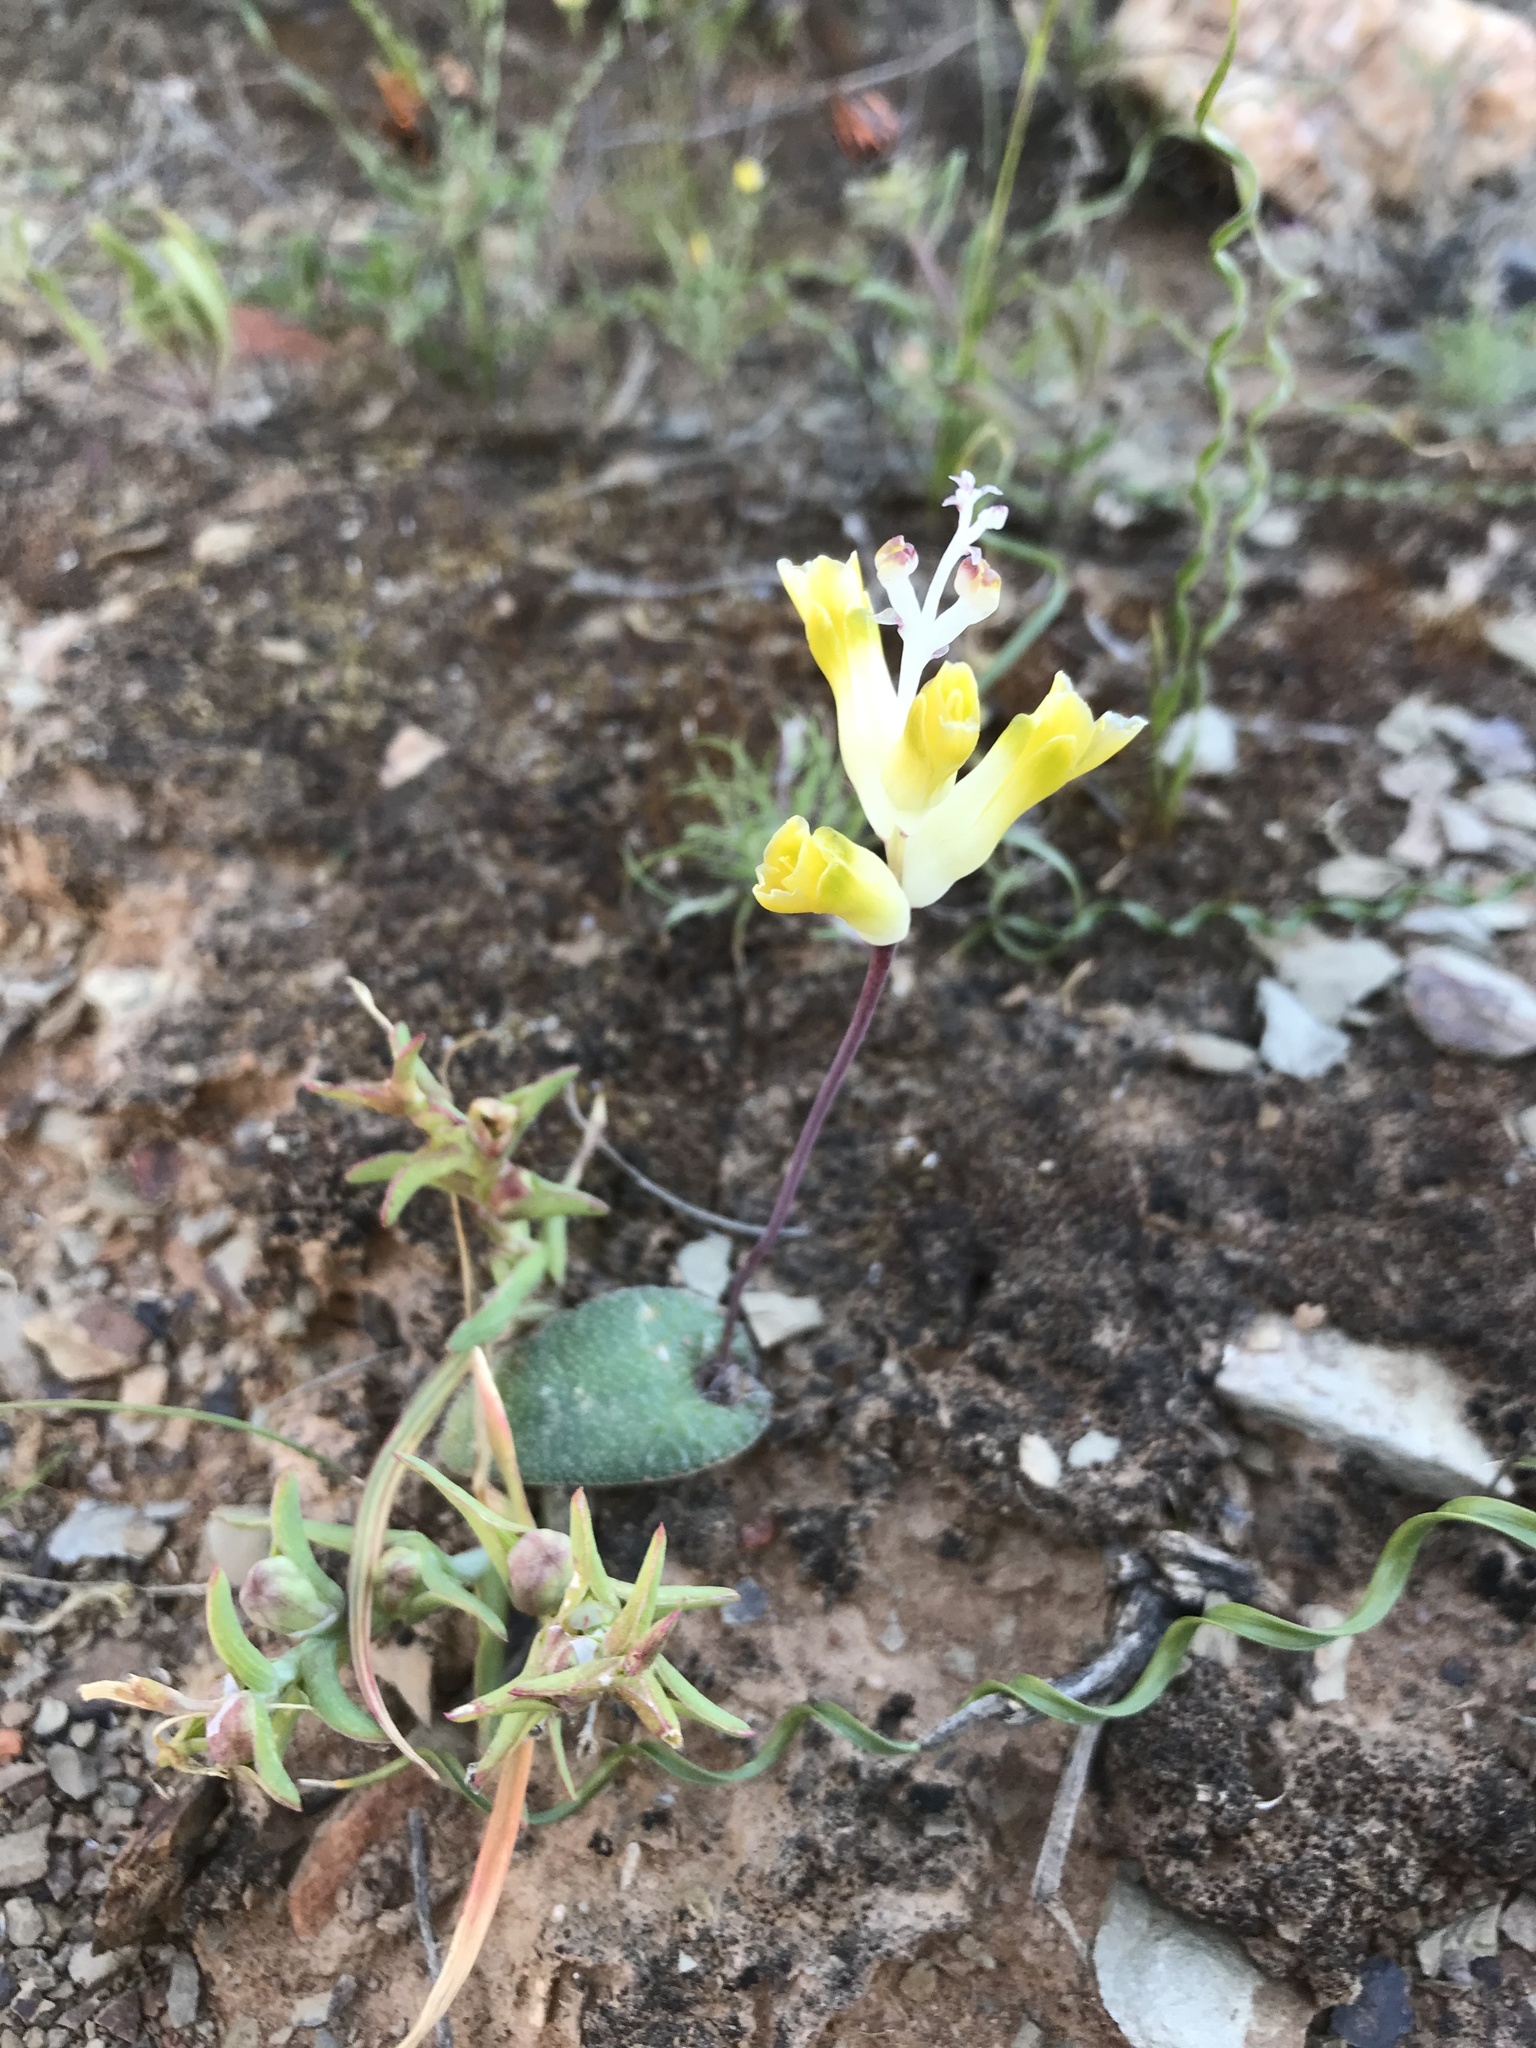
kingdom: Plantae
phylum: Tracheophyta
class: Liliopsida
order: Asparagales
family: Asparagaceae
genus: Lachenalia
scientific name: Lachenalia trichophylla
